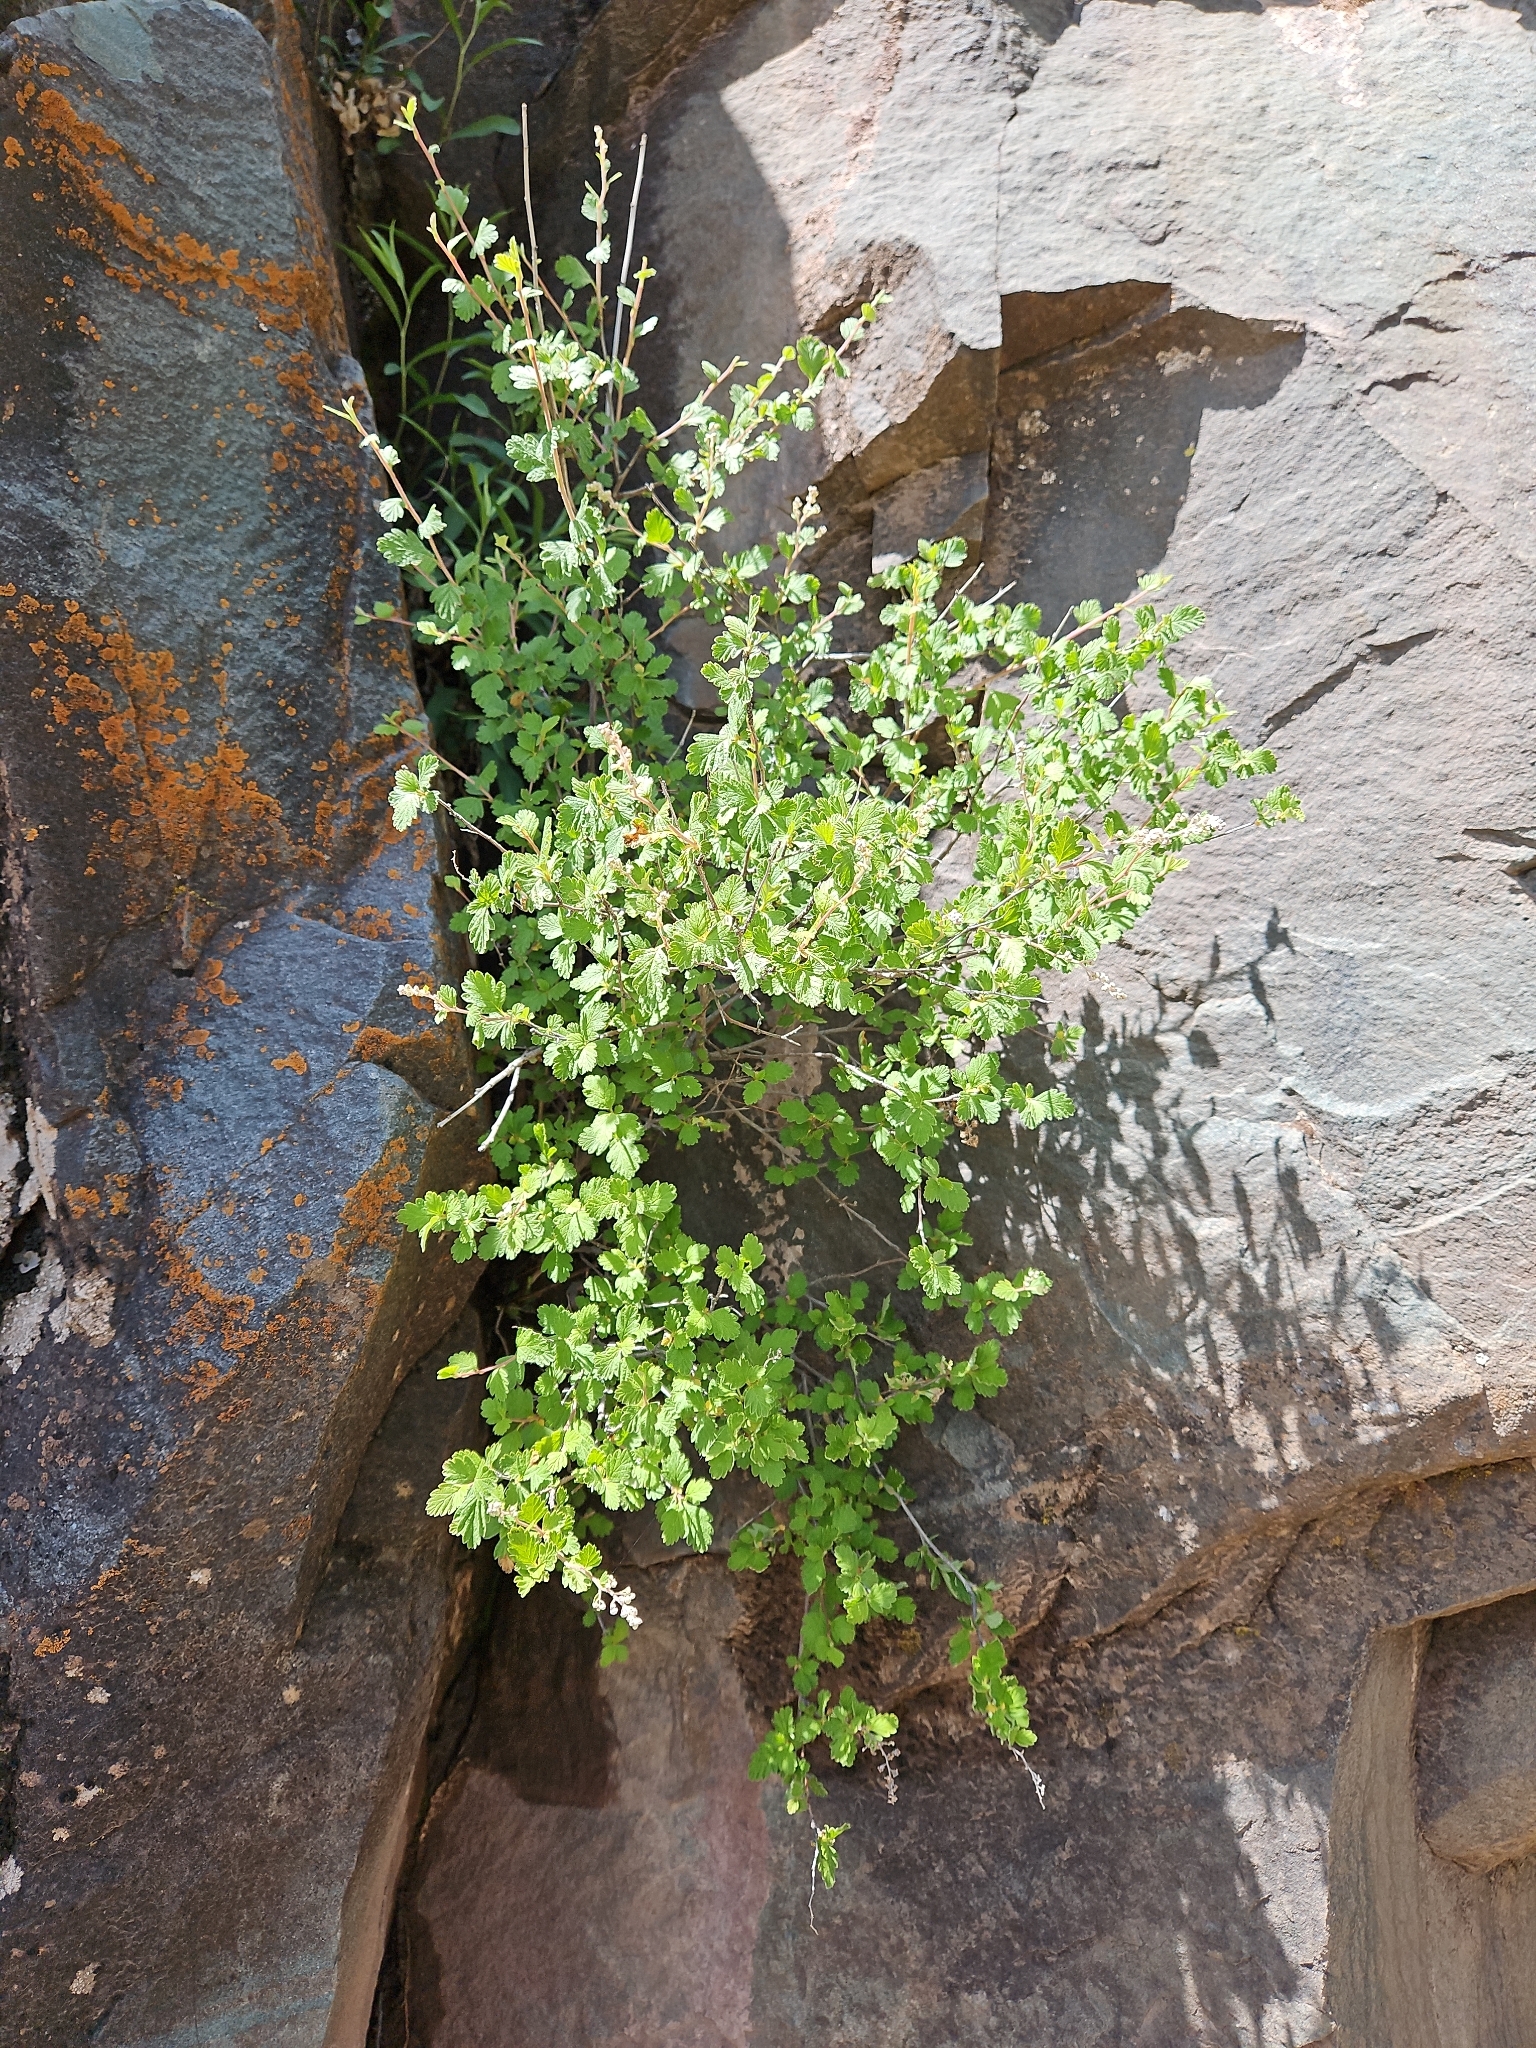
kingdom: Plantae
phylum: Tracheophyta
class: Magnoliopsida
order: Rosales
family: Rosaceae
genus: Holodiscus
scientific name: Holodiscus discolor
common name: Oceanspray
